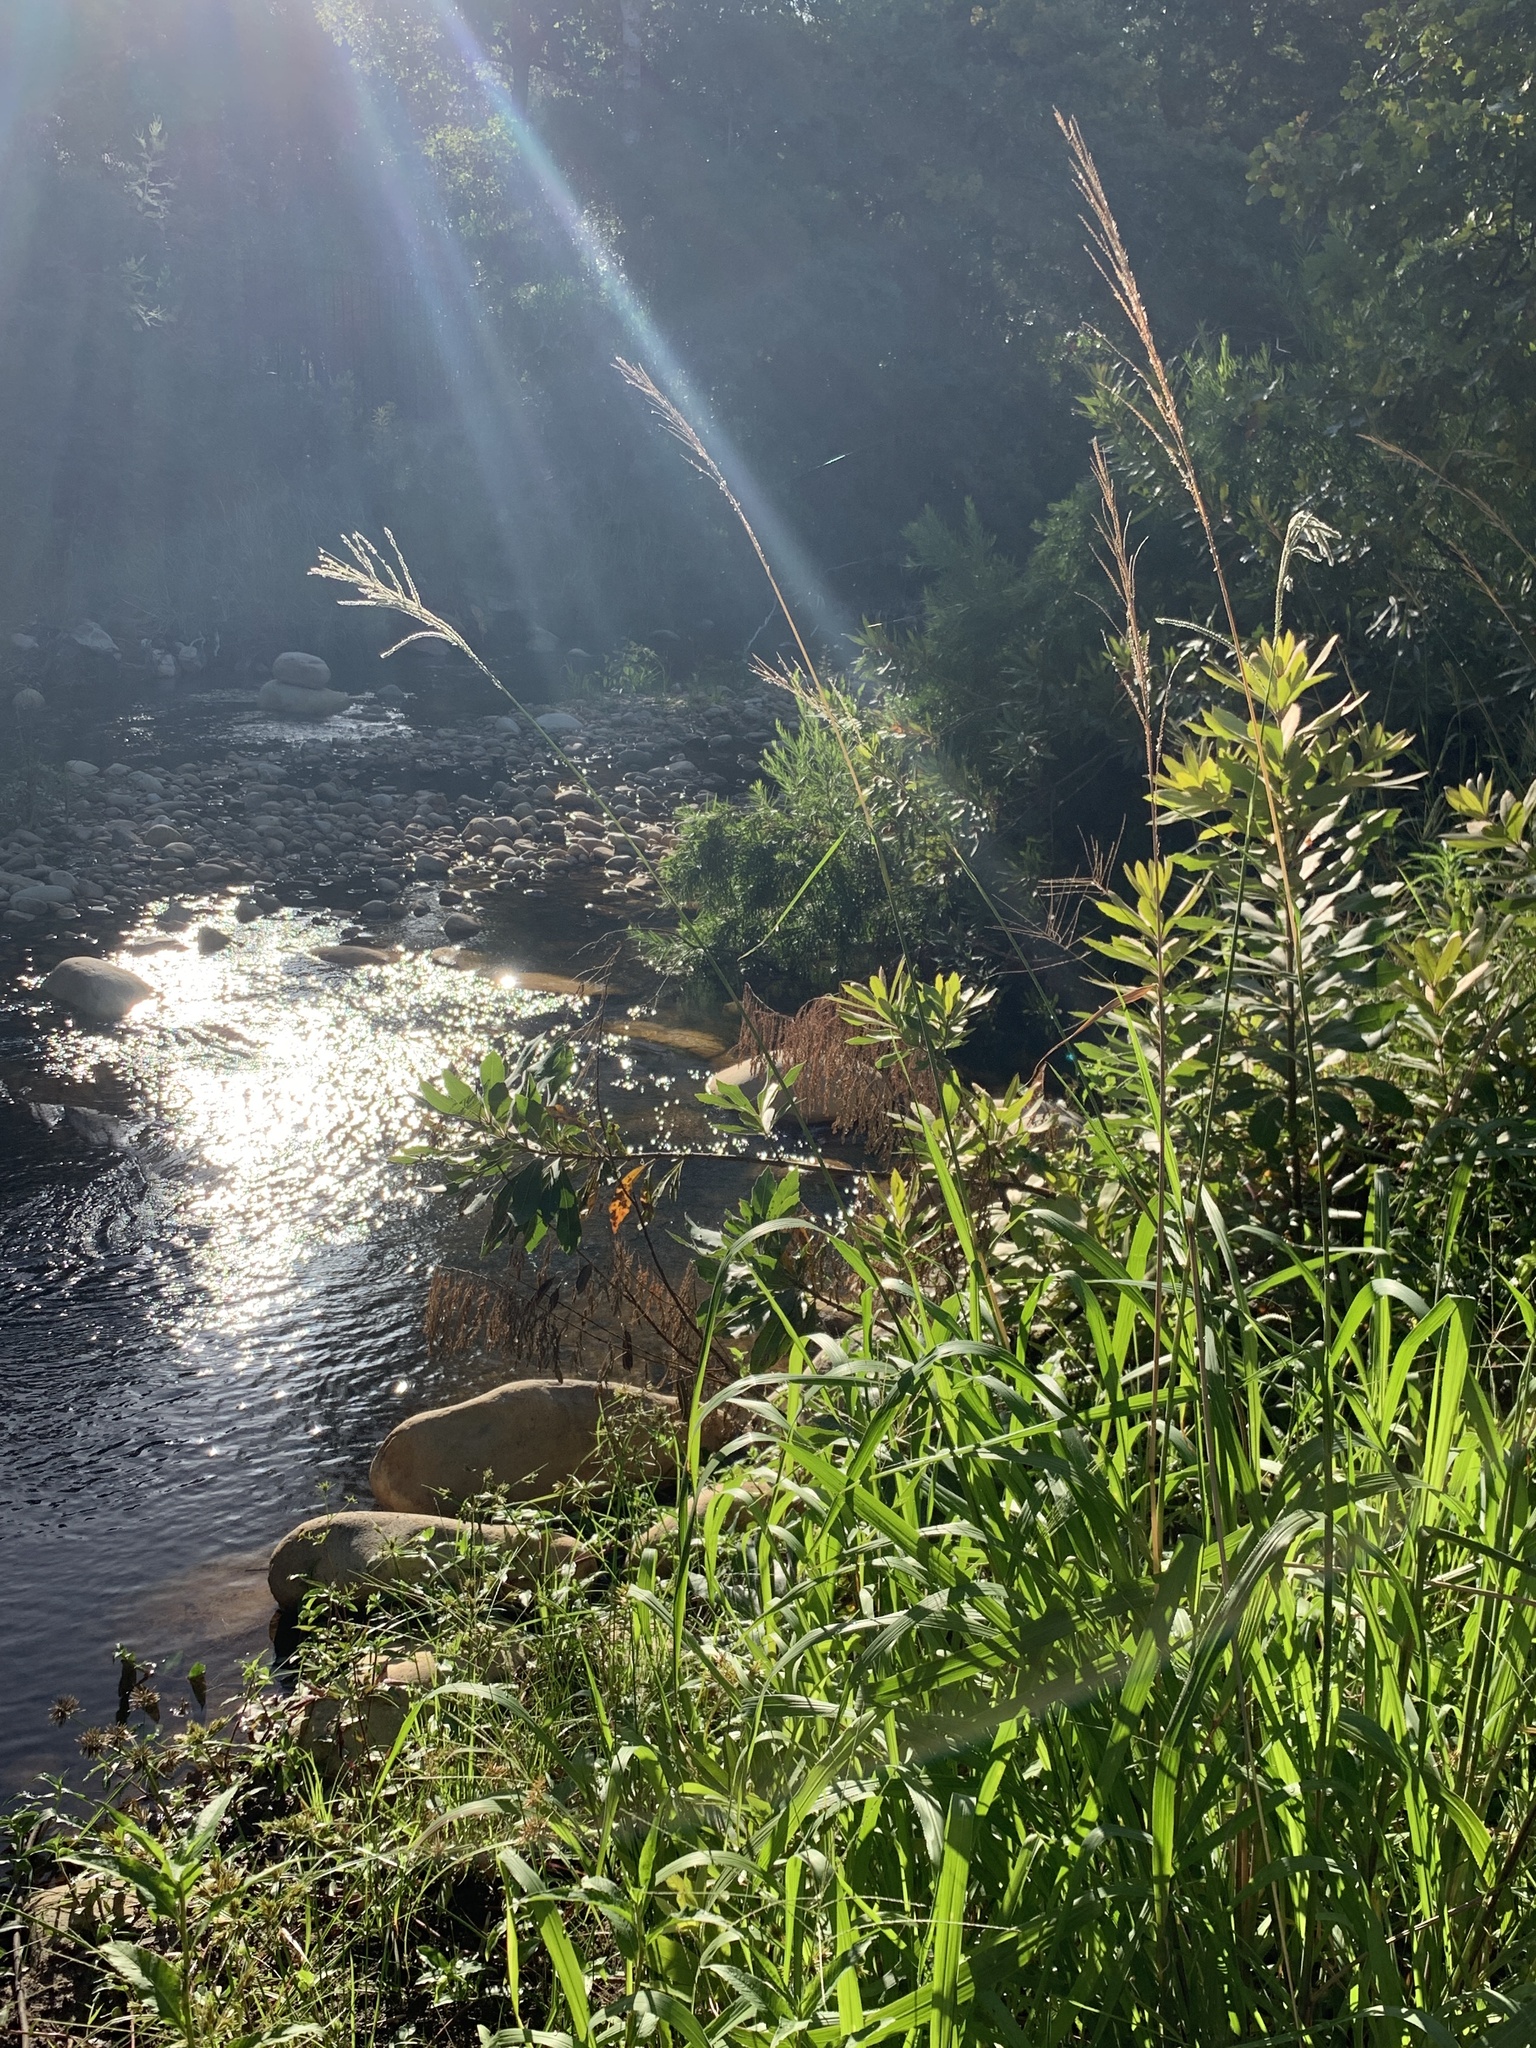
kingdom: Plantae
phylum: Tracheophyta
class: Liliopsida
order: Poales
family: Poaceae
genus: Paspalum
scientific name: Paspalum urvillei
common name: Vasey's grass
